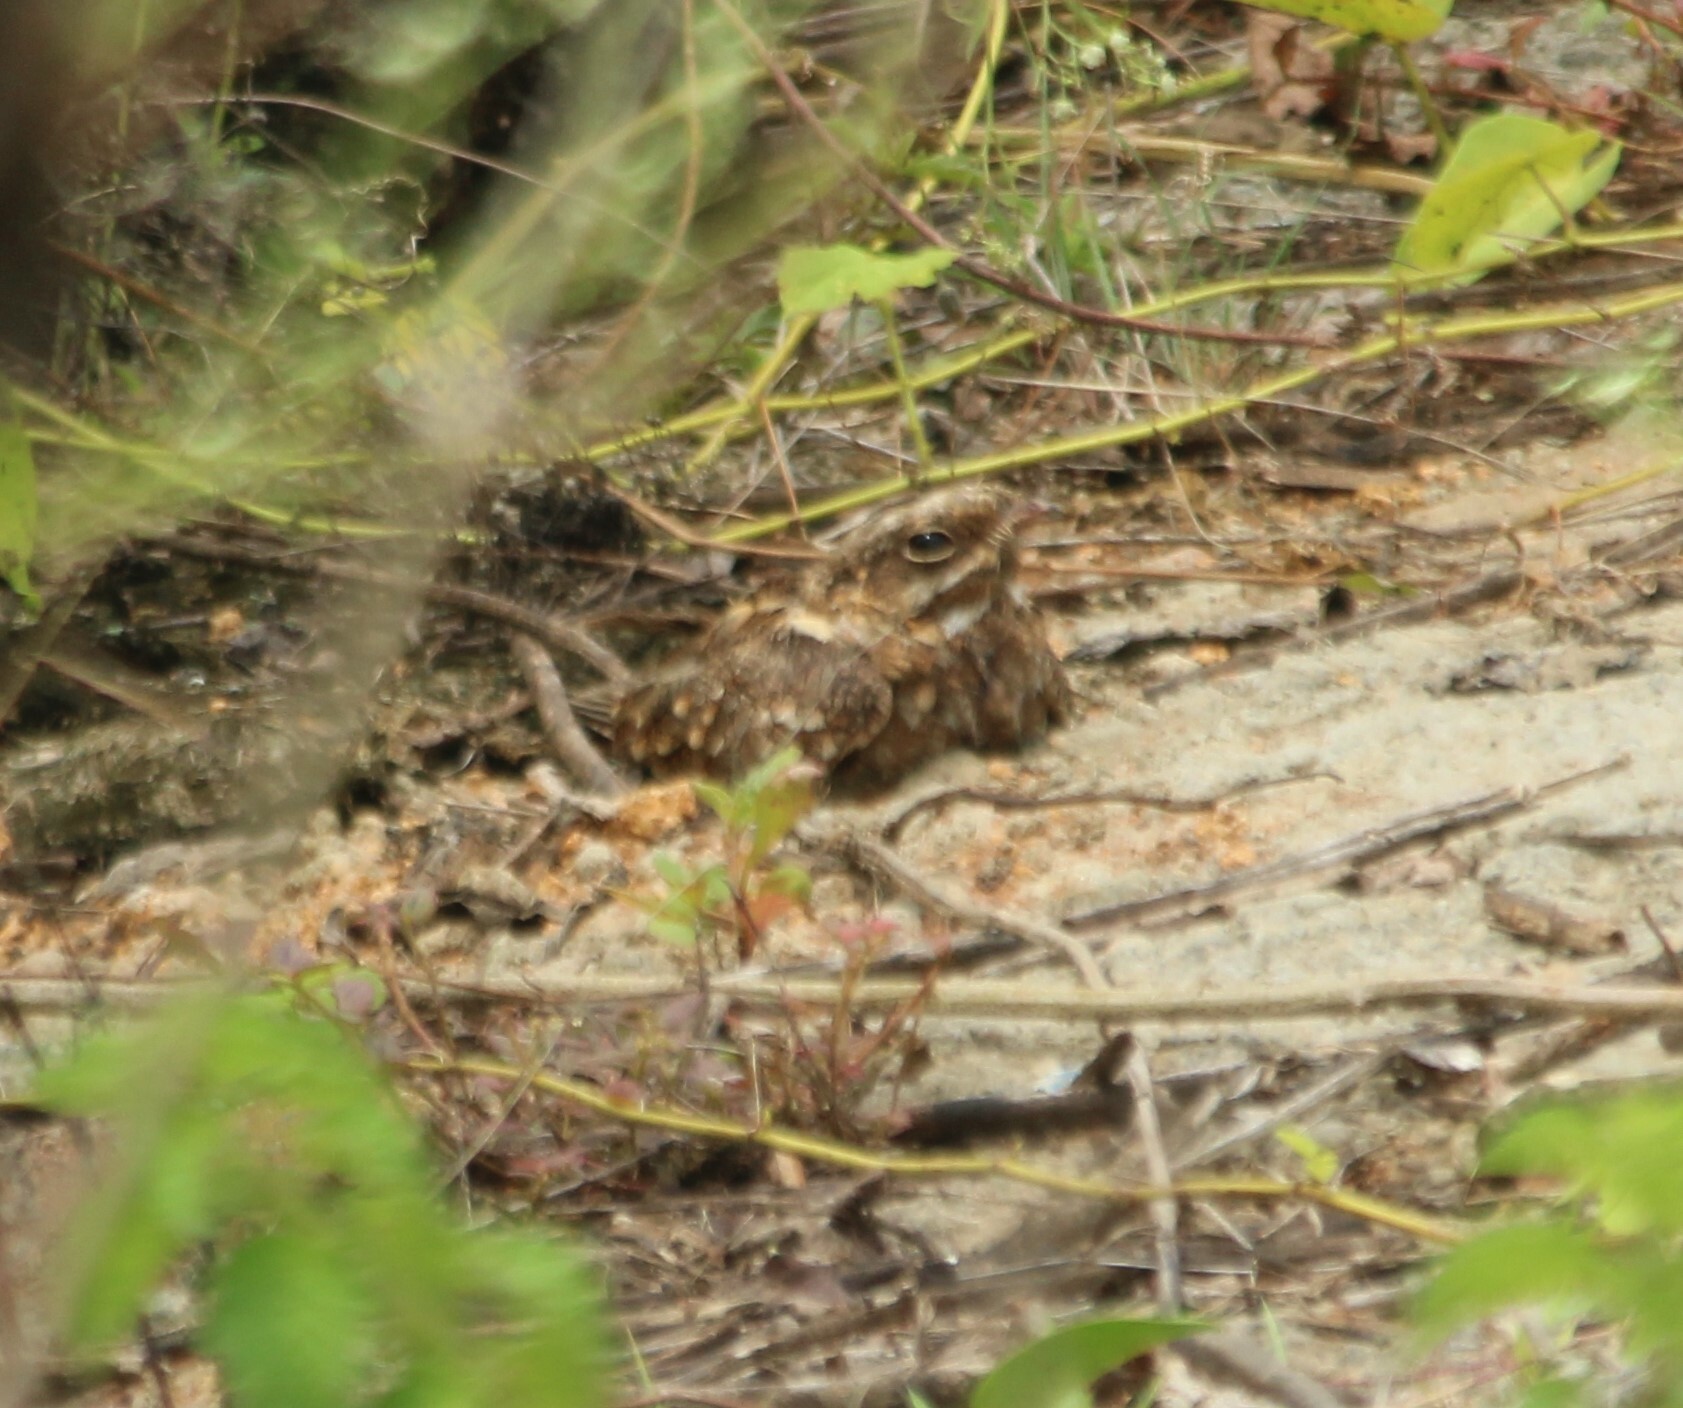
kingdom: Animalia
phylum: Chordata
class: Aves
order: Caprimulgiformes
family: Caprimulgidae
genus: Caprimulgus
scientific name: Caprimulgus asiaticus
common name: Indian nightjar
